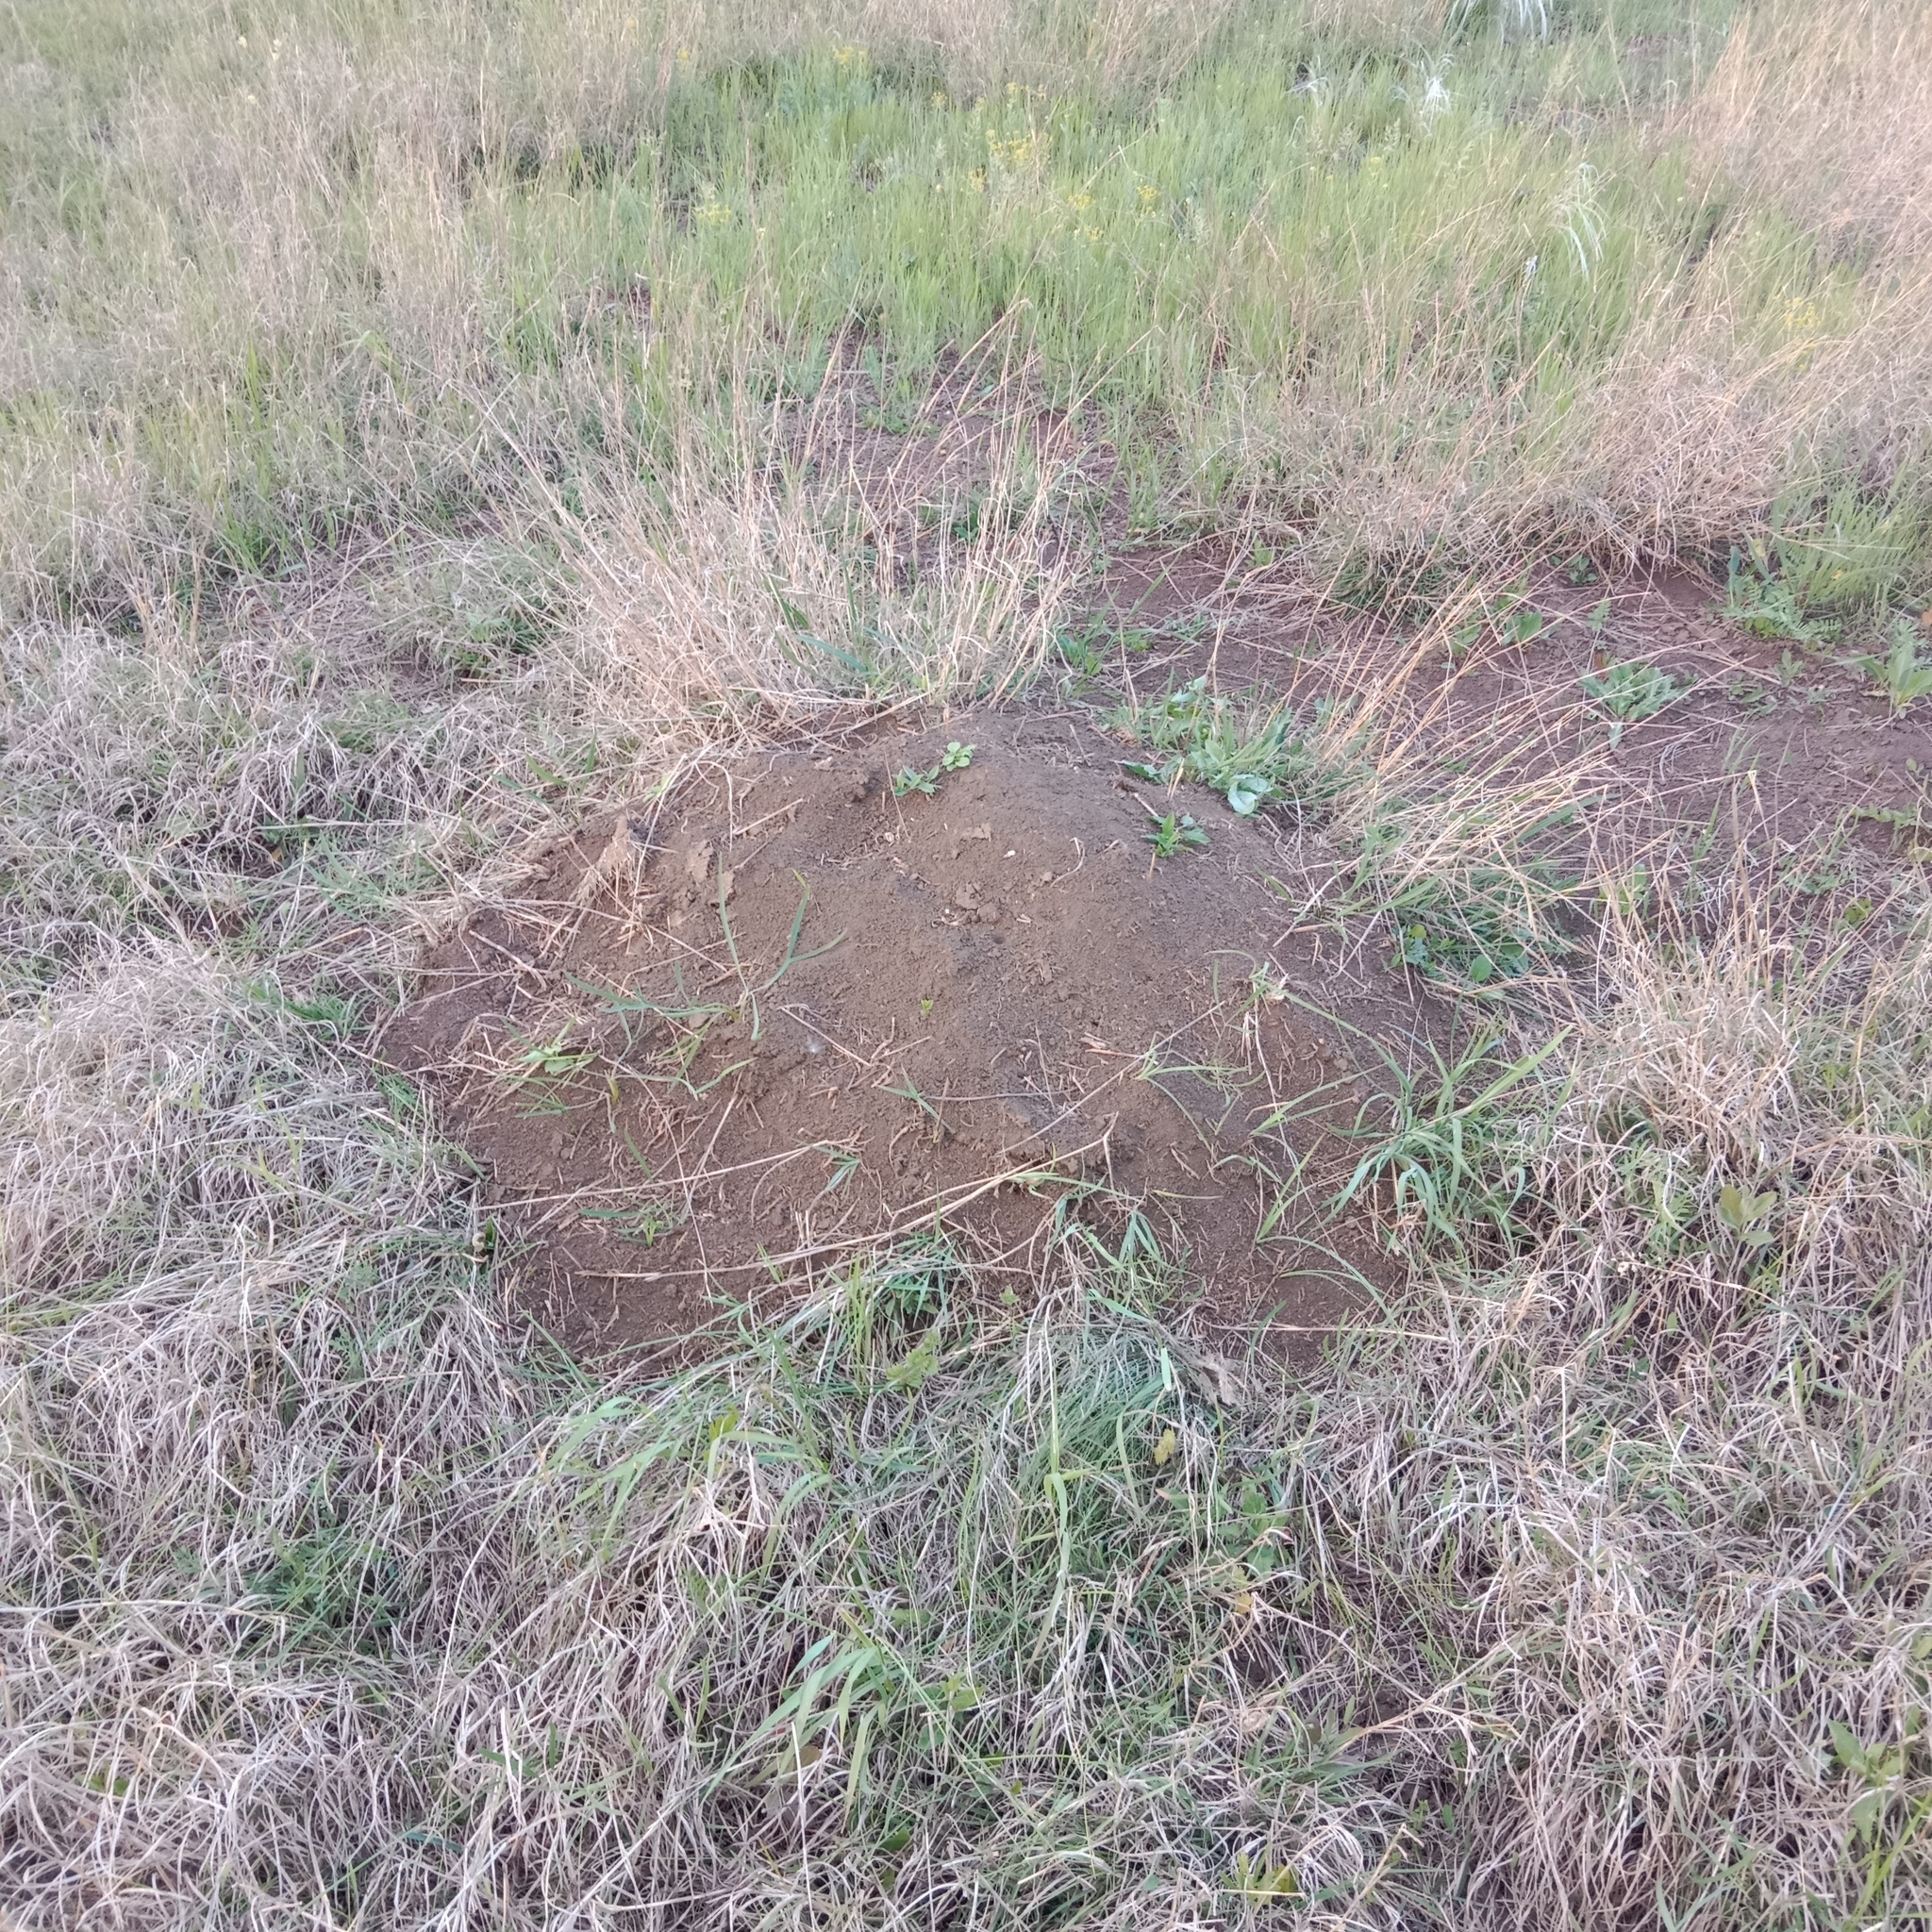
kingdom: Animalia
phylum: Chordata
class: Mammalia
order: Rodentia
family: Muridae
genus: Mus
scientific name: Mus spicilegus
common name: Mound-building mouse
